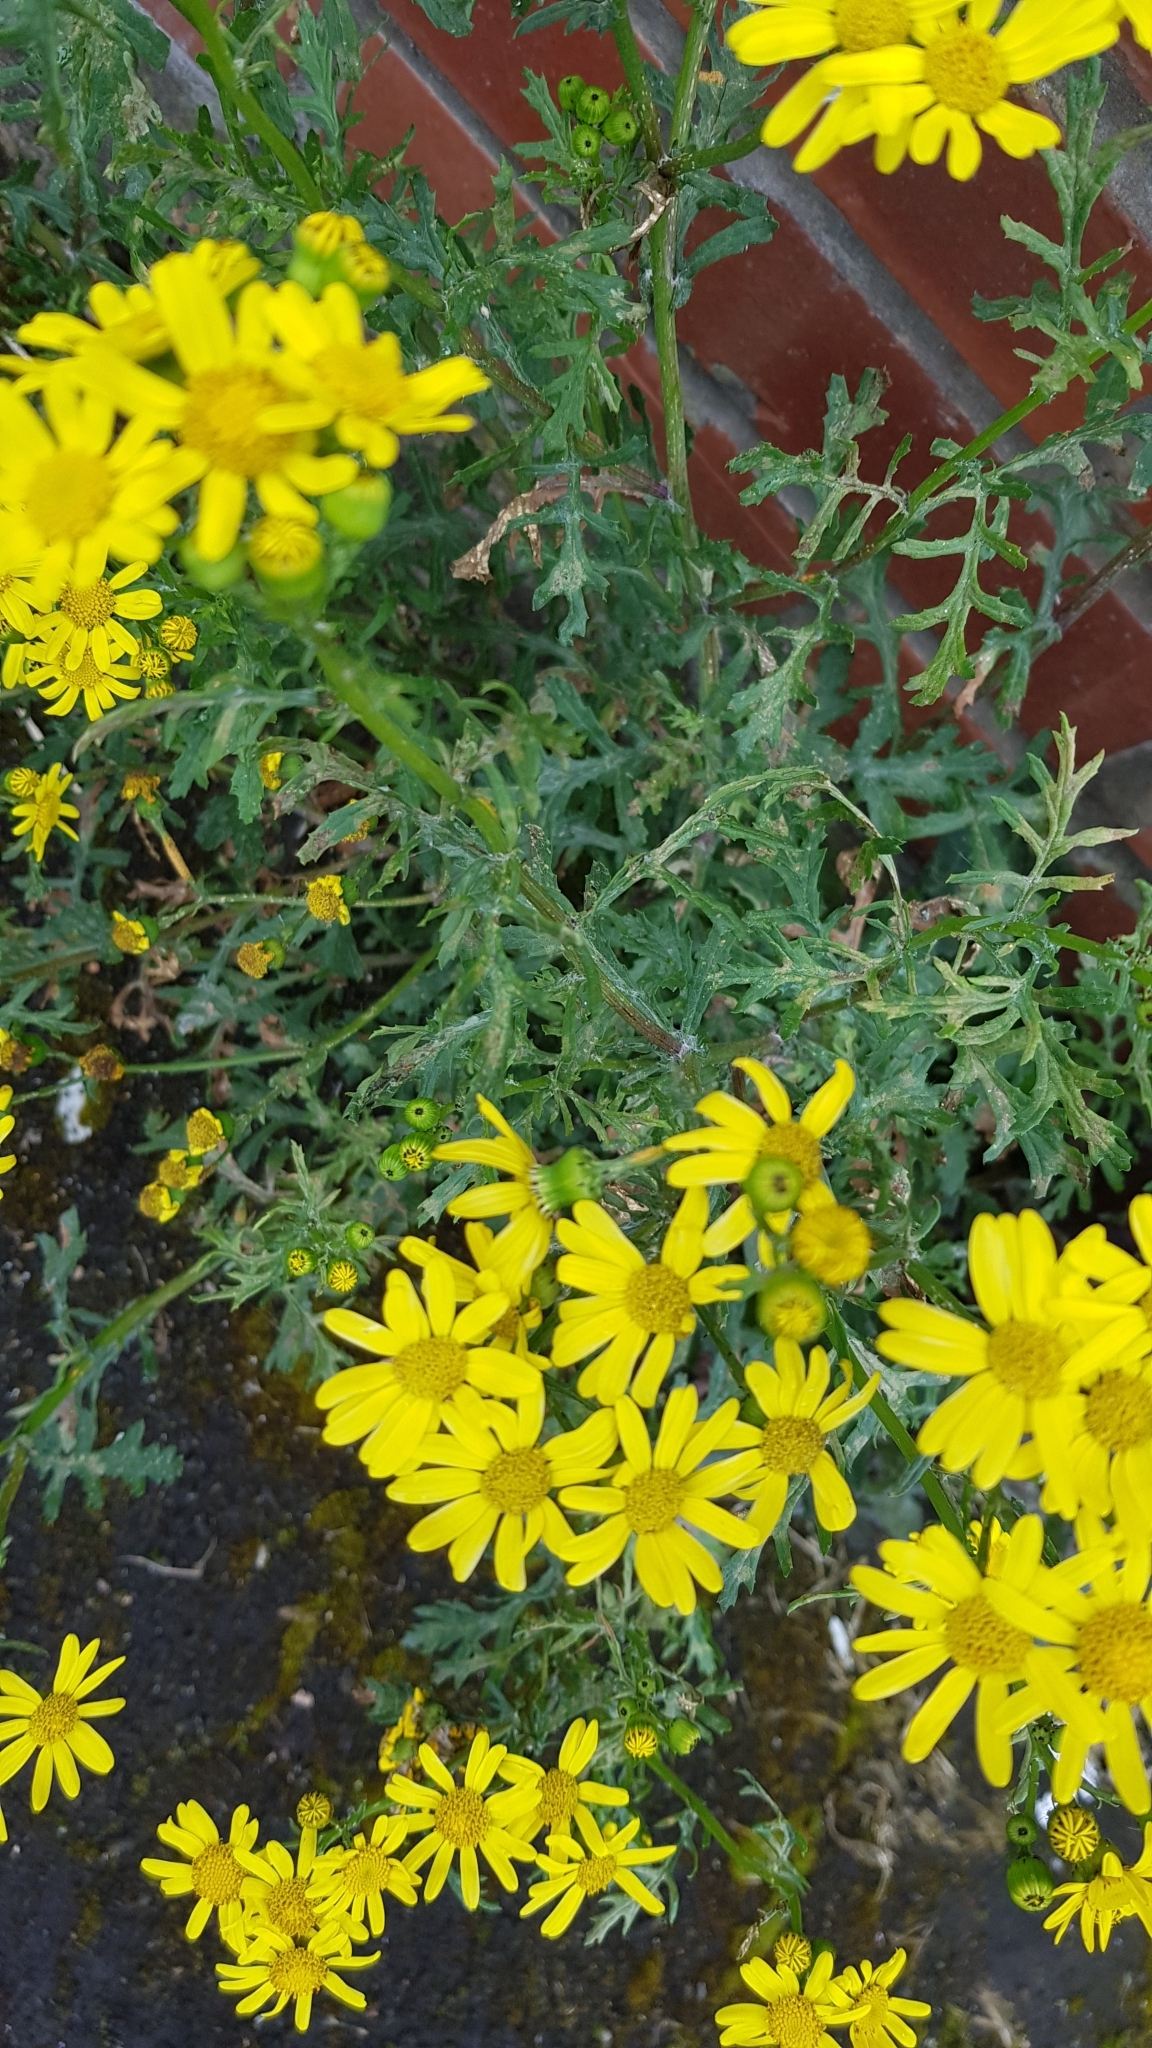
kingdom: Plantae
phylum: Tracheophyta
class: Magnoliopsida
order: Asterales
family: Asteraceae
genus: Senecio
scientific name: Senecio squalidus
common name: Oxford ragwort
